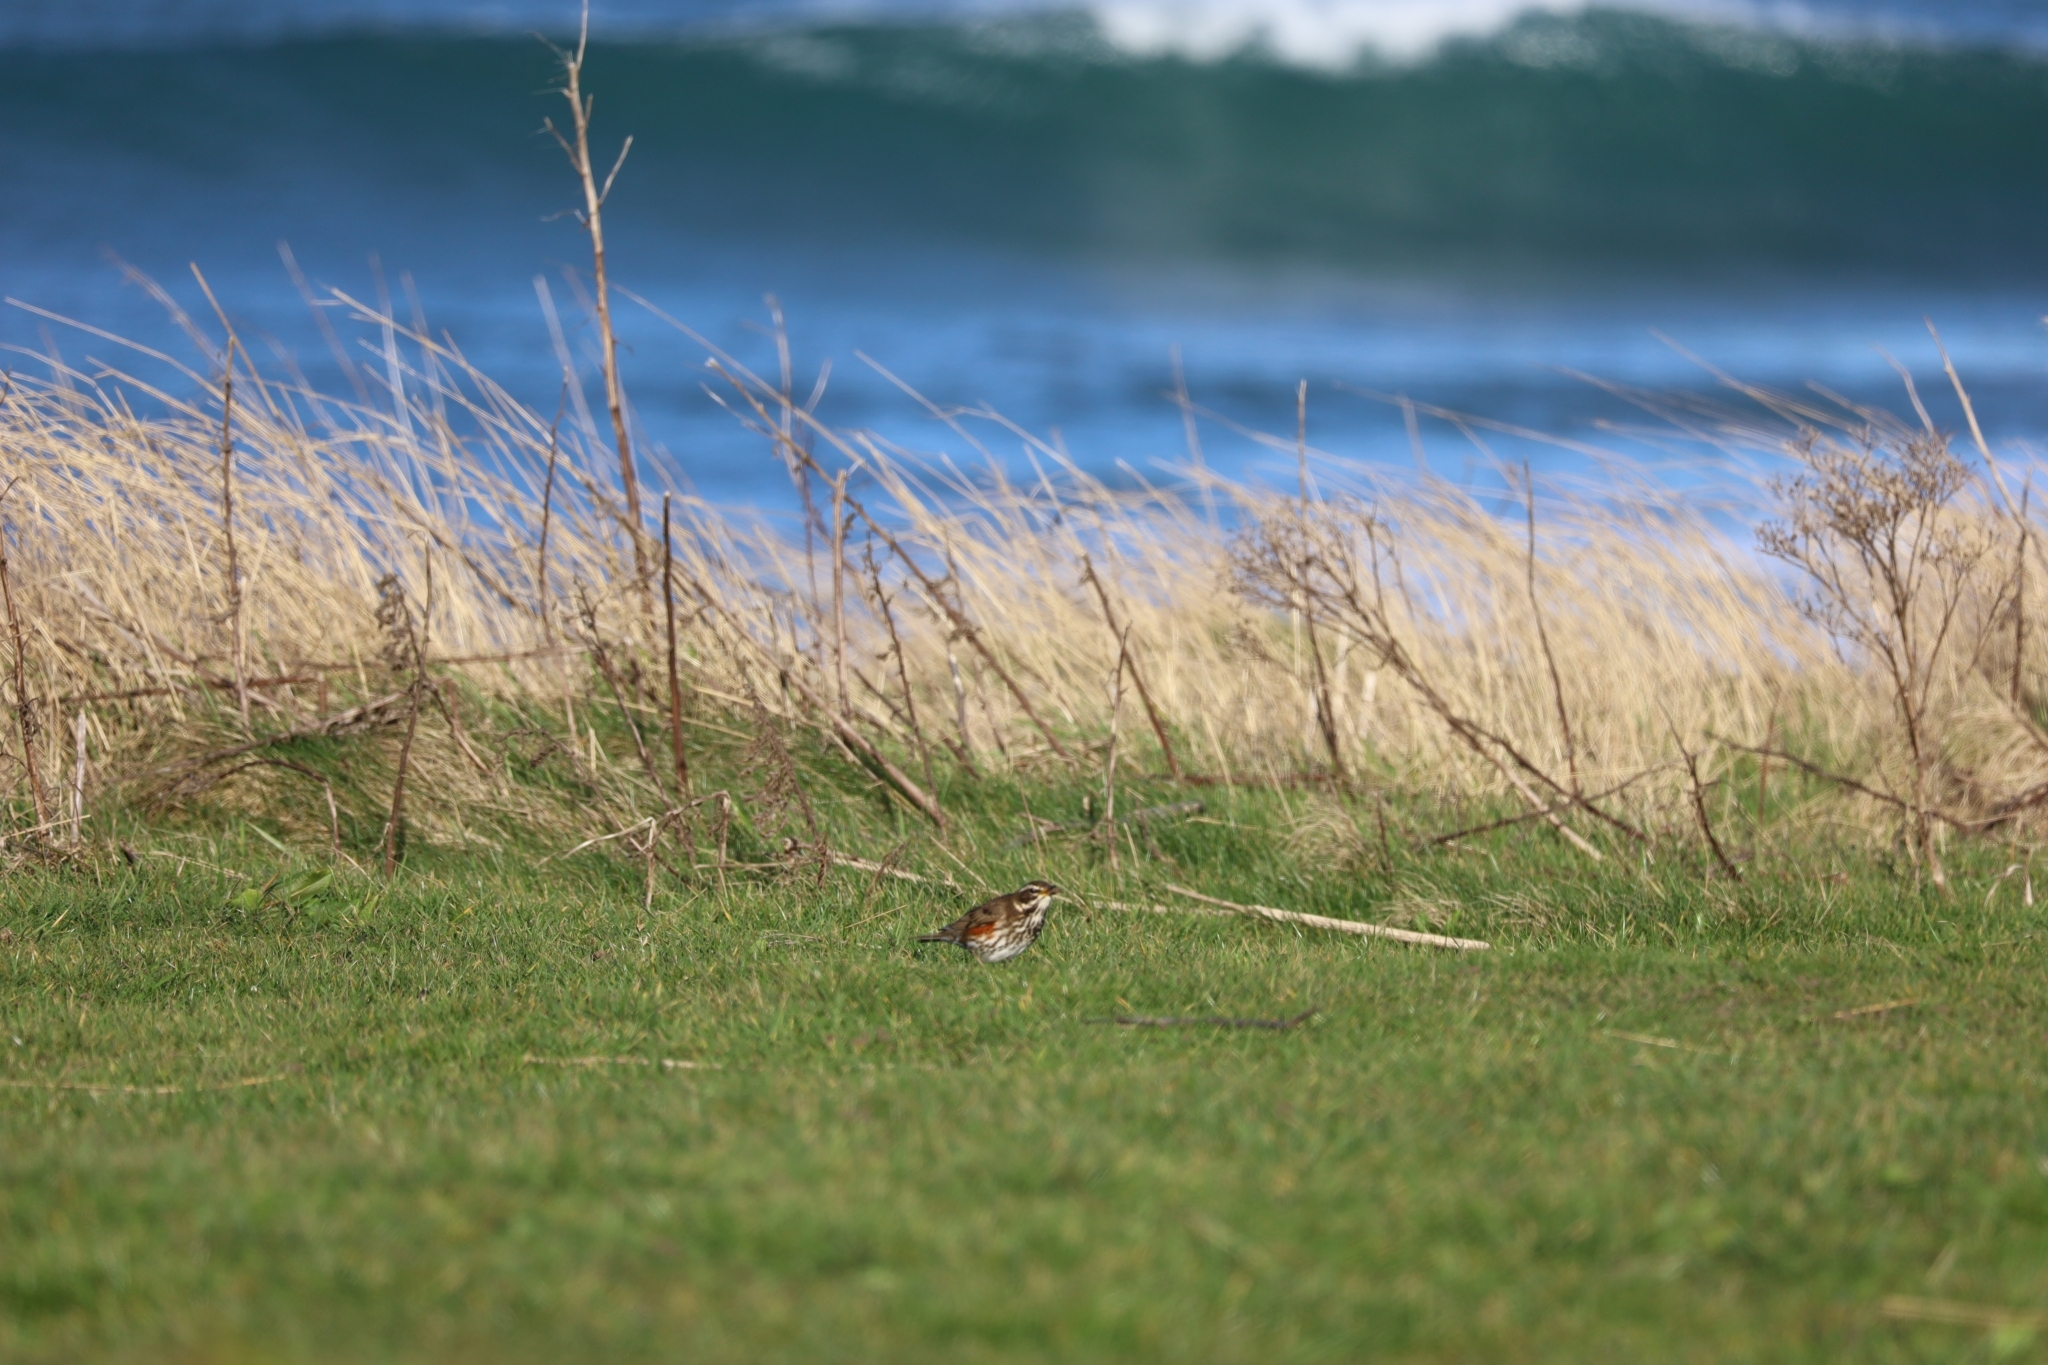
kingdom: Animalia
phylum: Chordata
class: Aves
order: Passeriformes
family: Turdidae
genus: Turdus
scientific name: Turdus iliacus
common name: Redwing
